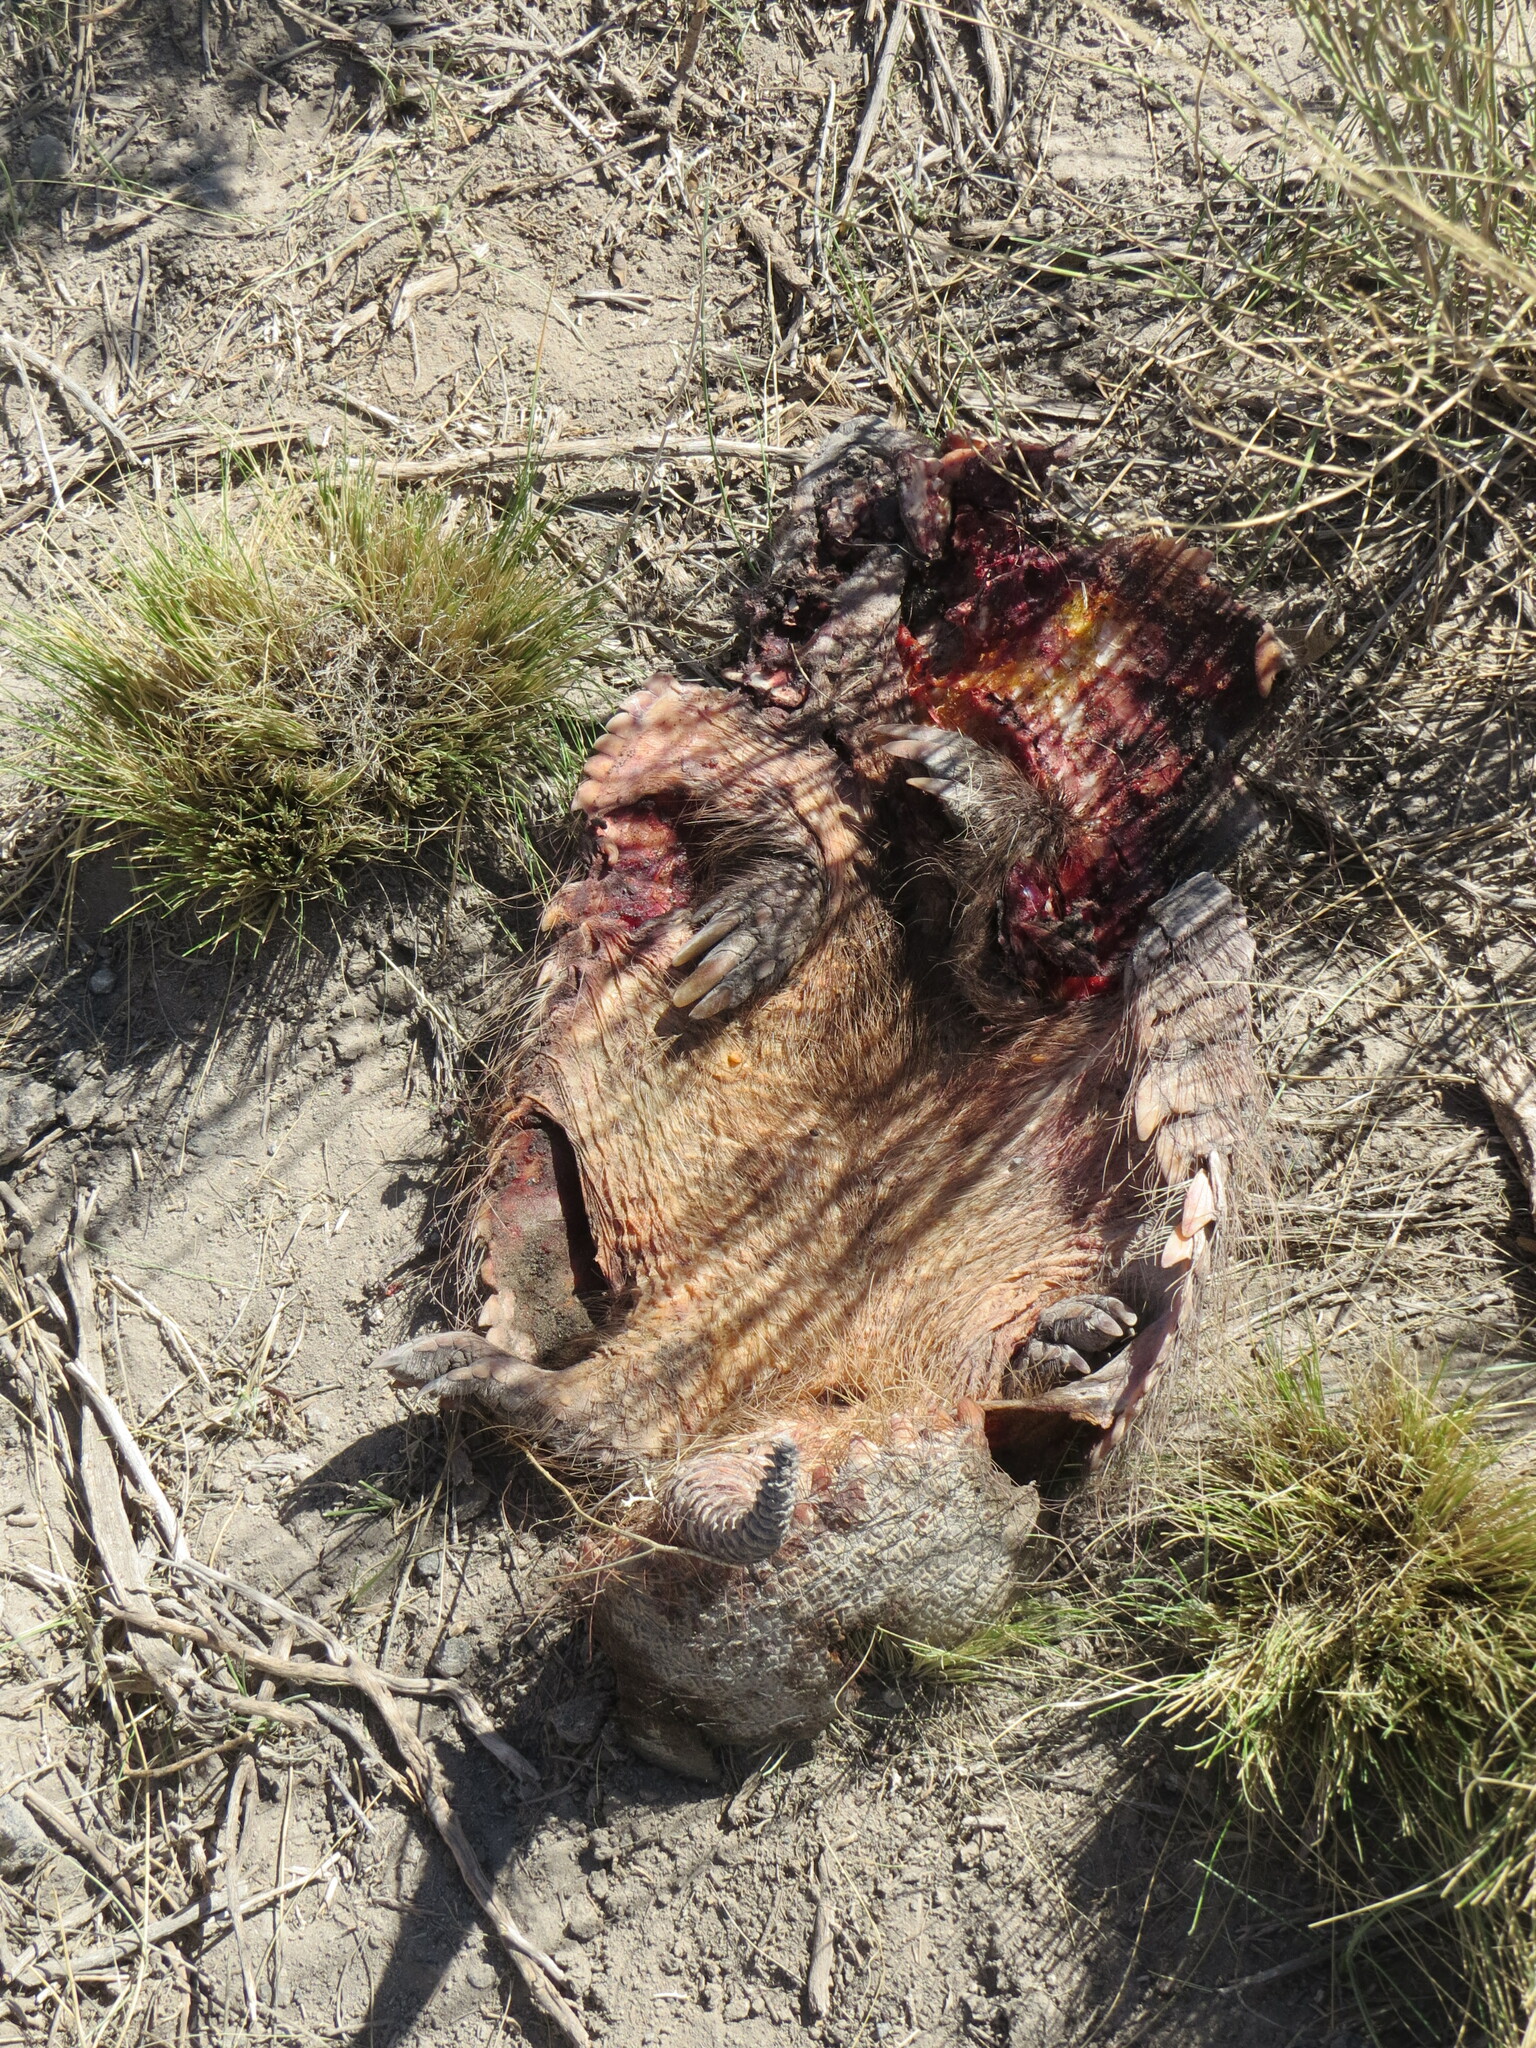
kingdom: Animalia
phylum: Chordata
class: Mammalia
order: Cingulata
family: Dasypodidae
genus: Chaetophractus
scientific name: Chaetophractus villosus
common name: Big hairy armadillo
